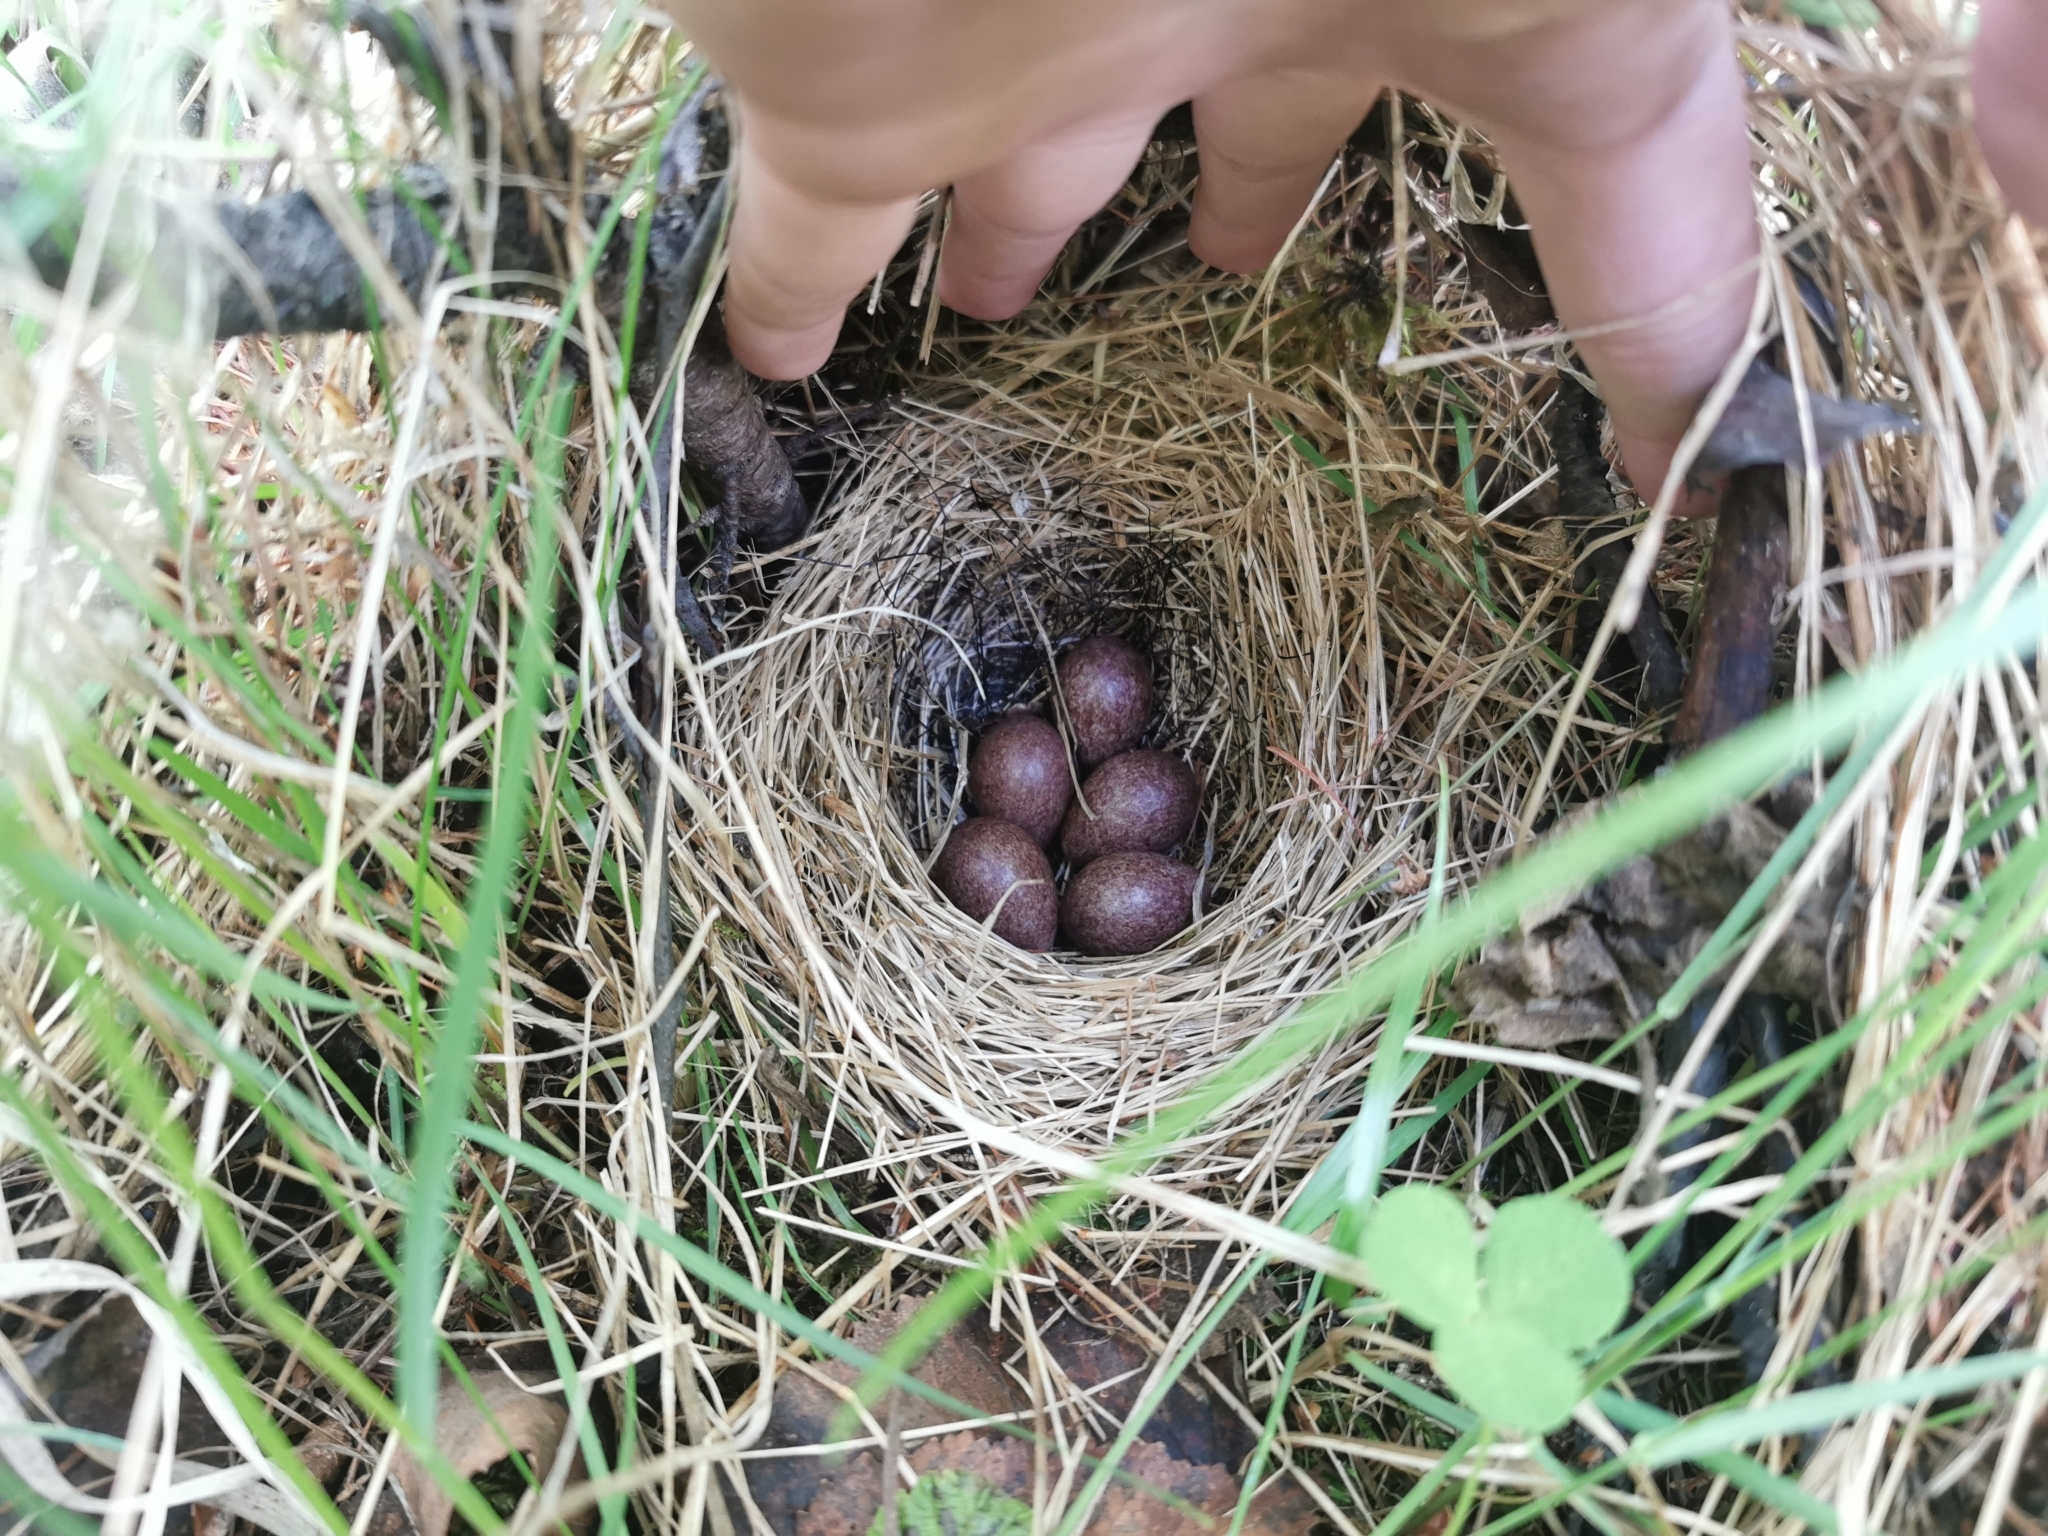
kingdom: Animalia
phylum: Chordata
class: Aves
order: Passeriformes
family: Motacillidae
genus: Anthus
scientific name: Anthus hodgsoni
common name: Olive-backed pipit
